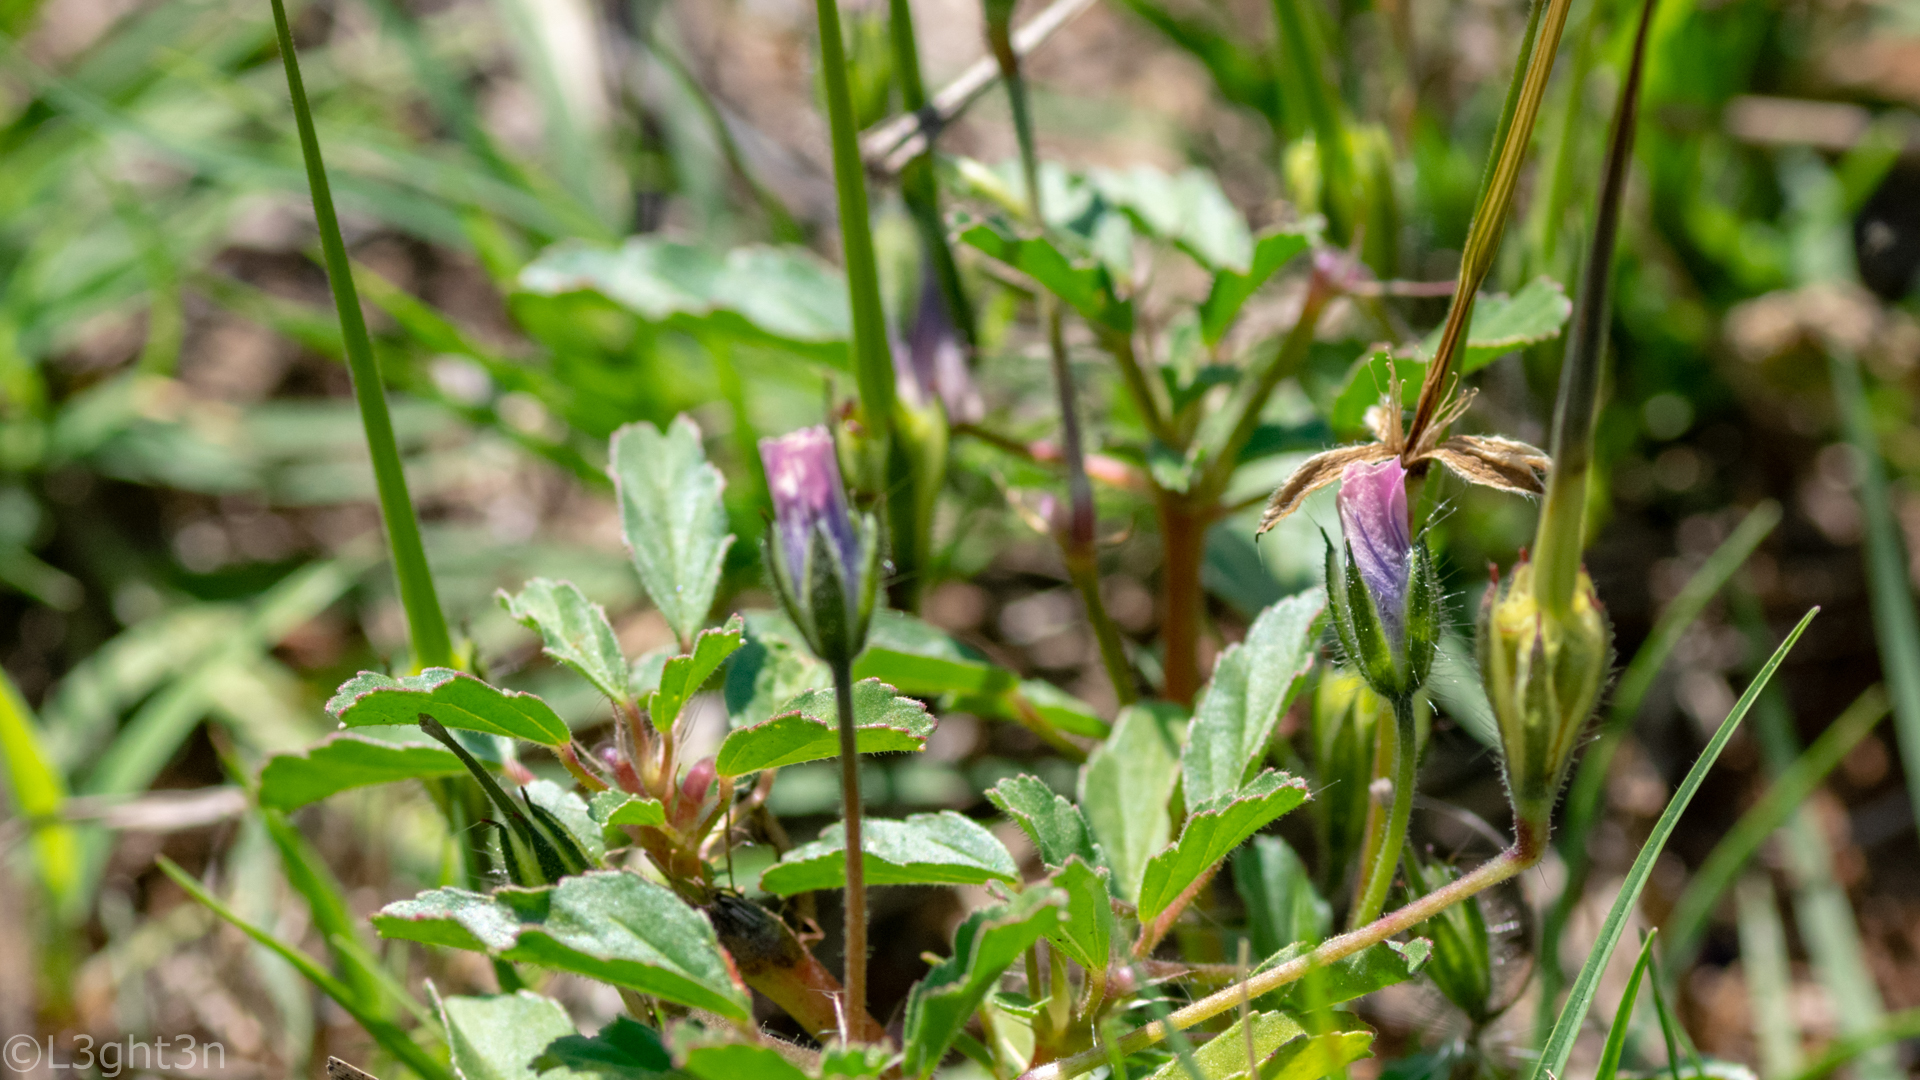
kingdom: Plantae
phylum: Tracheophyta
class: Magnoliopsida
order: Geraniales
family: Geraniaceae
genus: Monsonia
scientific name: Monsonia angustifolia
